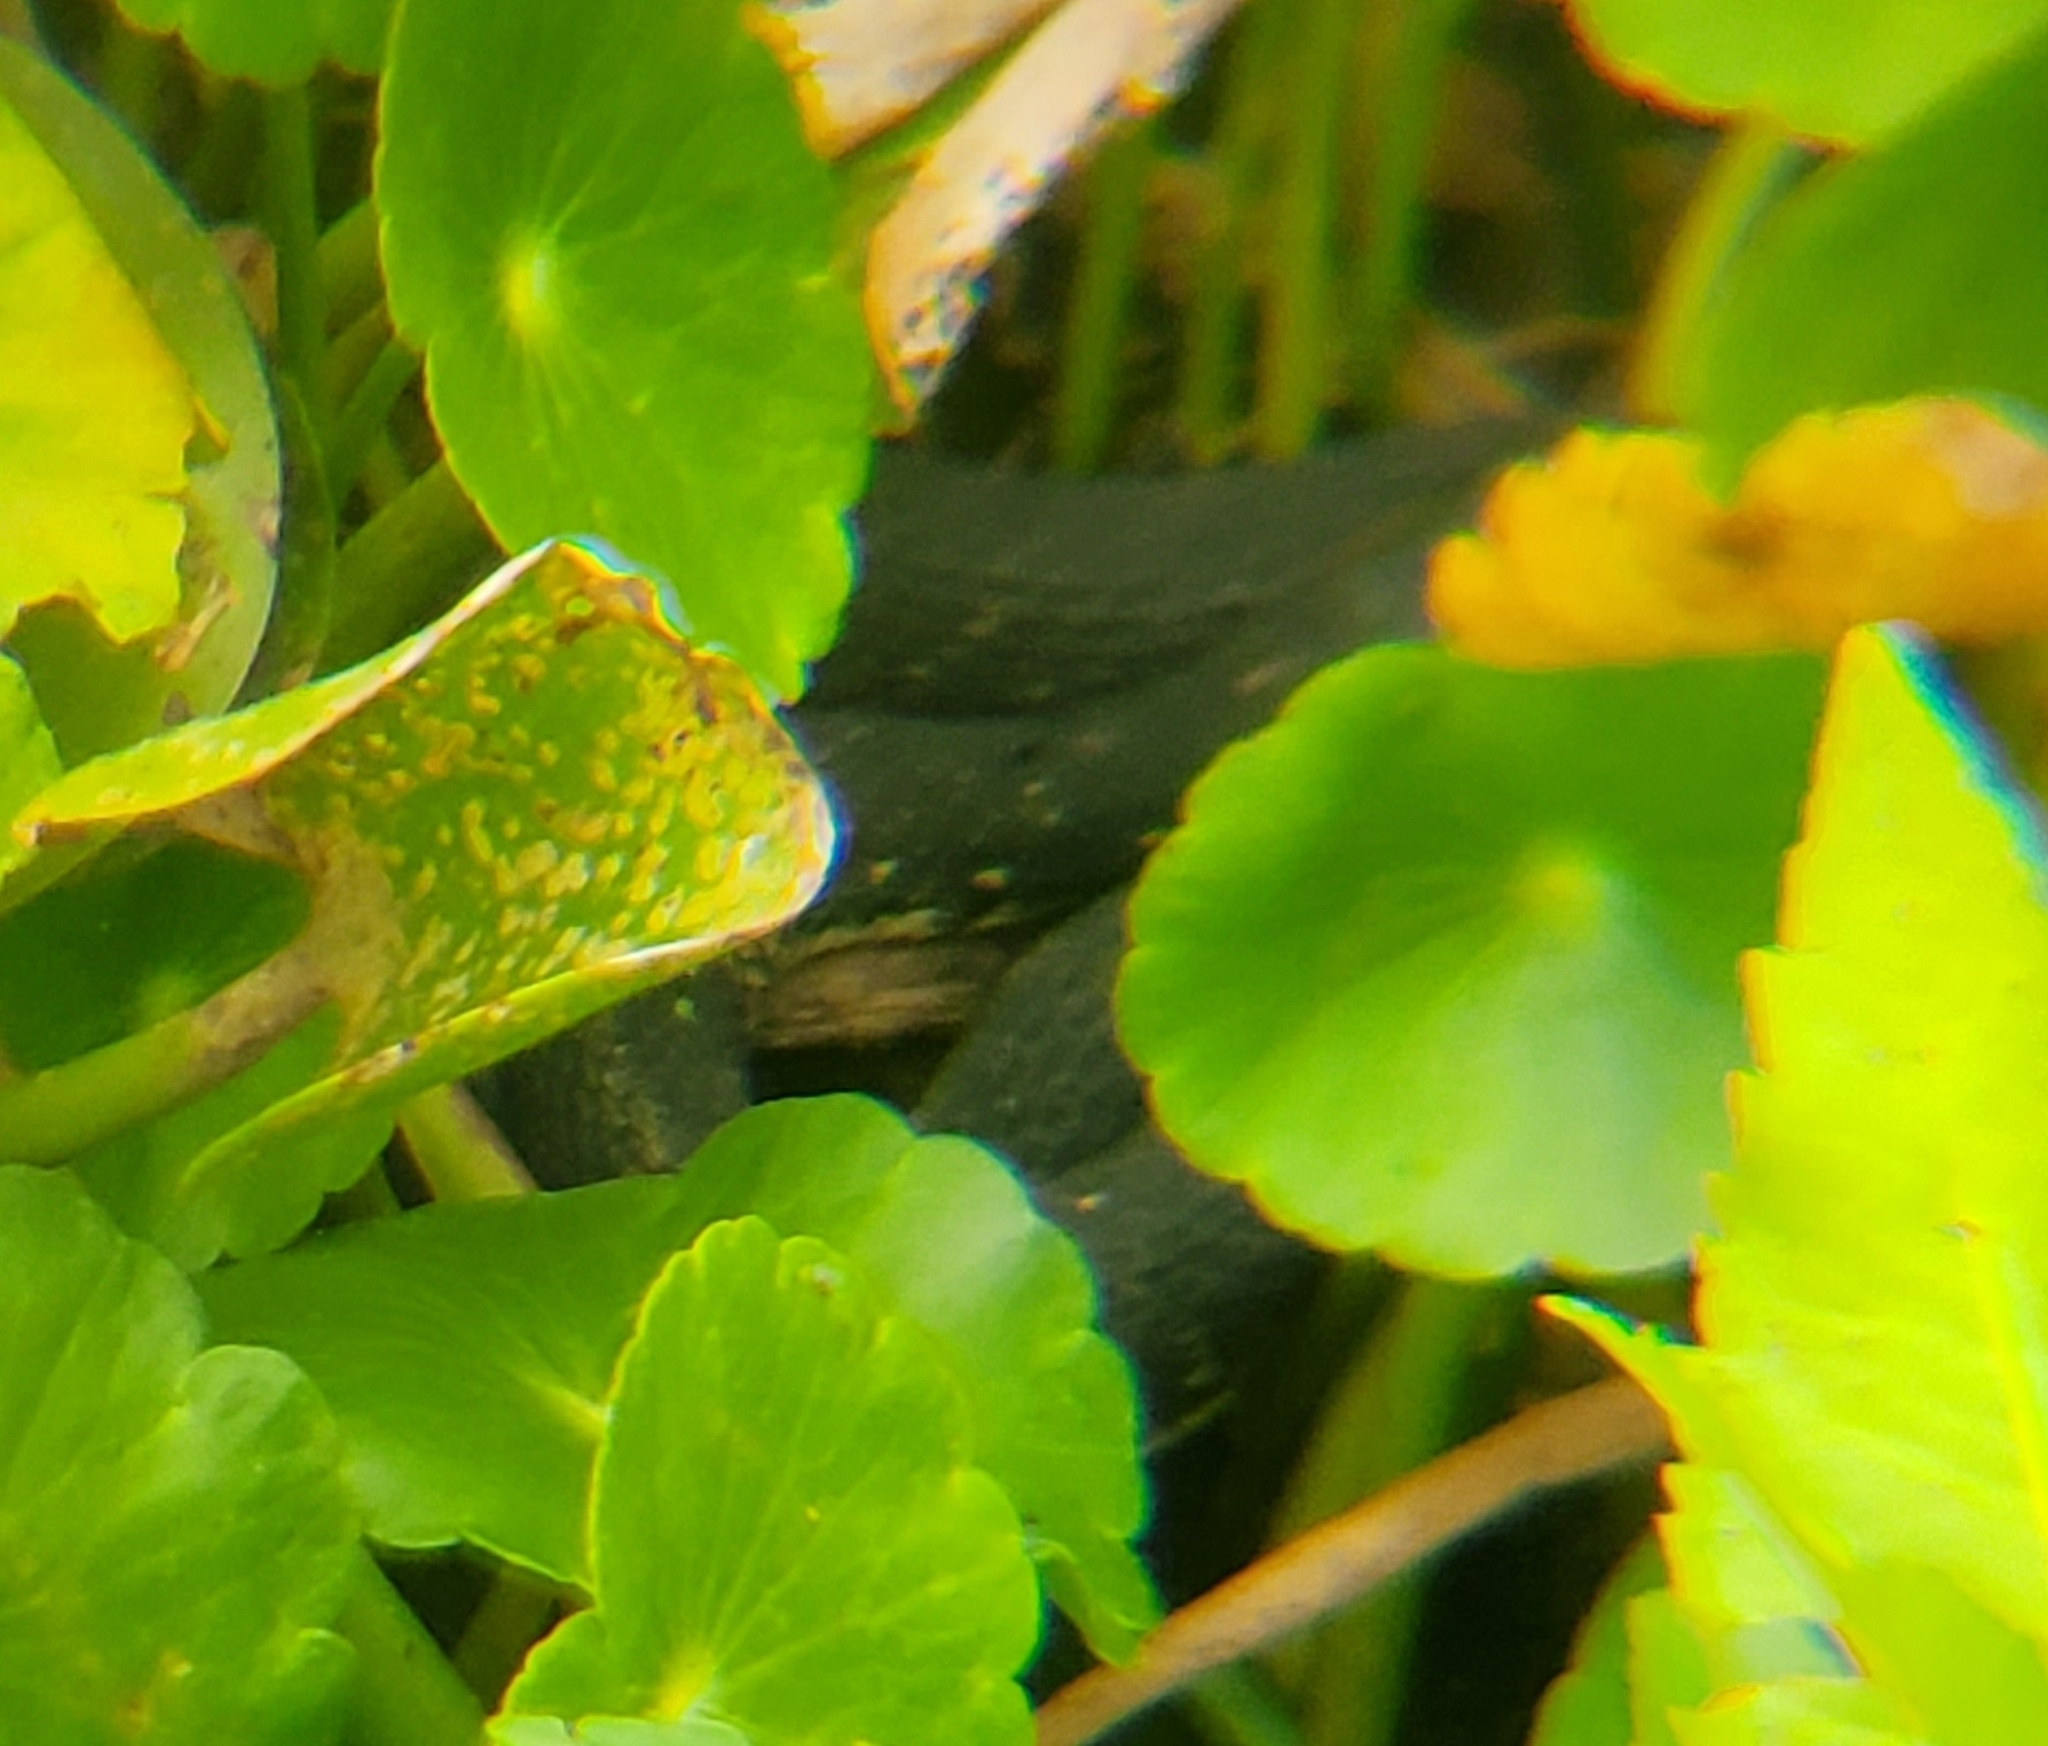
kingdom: Animalia
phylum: Chordata
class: Squamata
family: Colubridae
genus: Nerodia
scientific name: Nerodia fasciata
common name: Southern water snake
